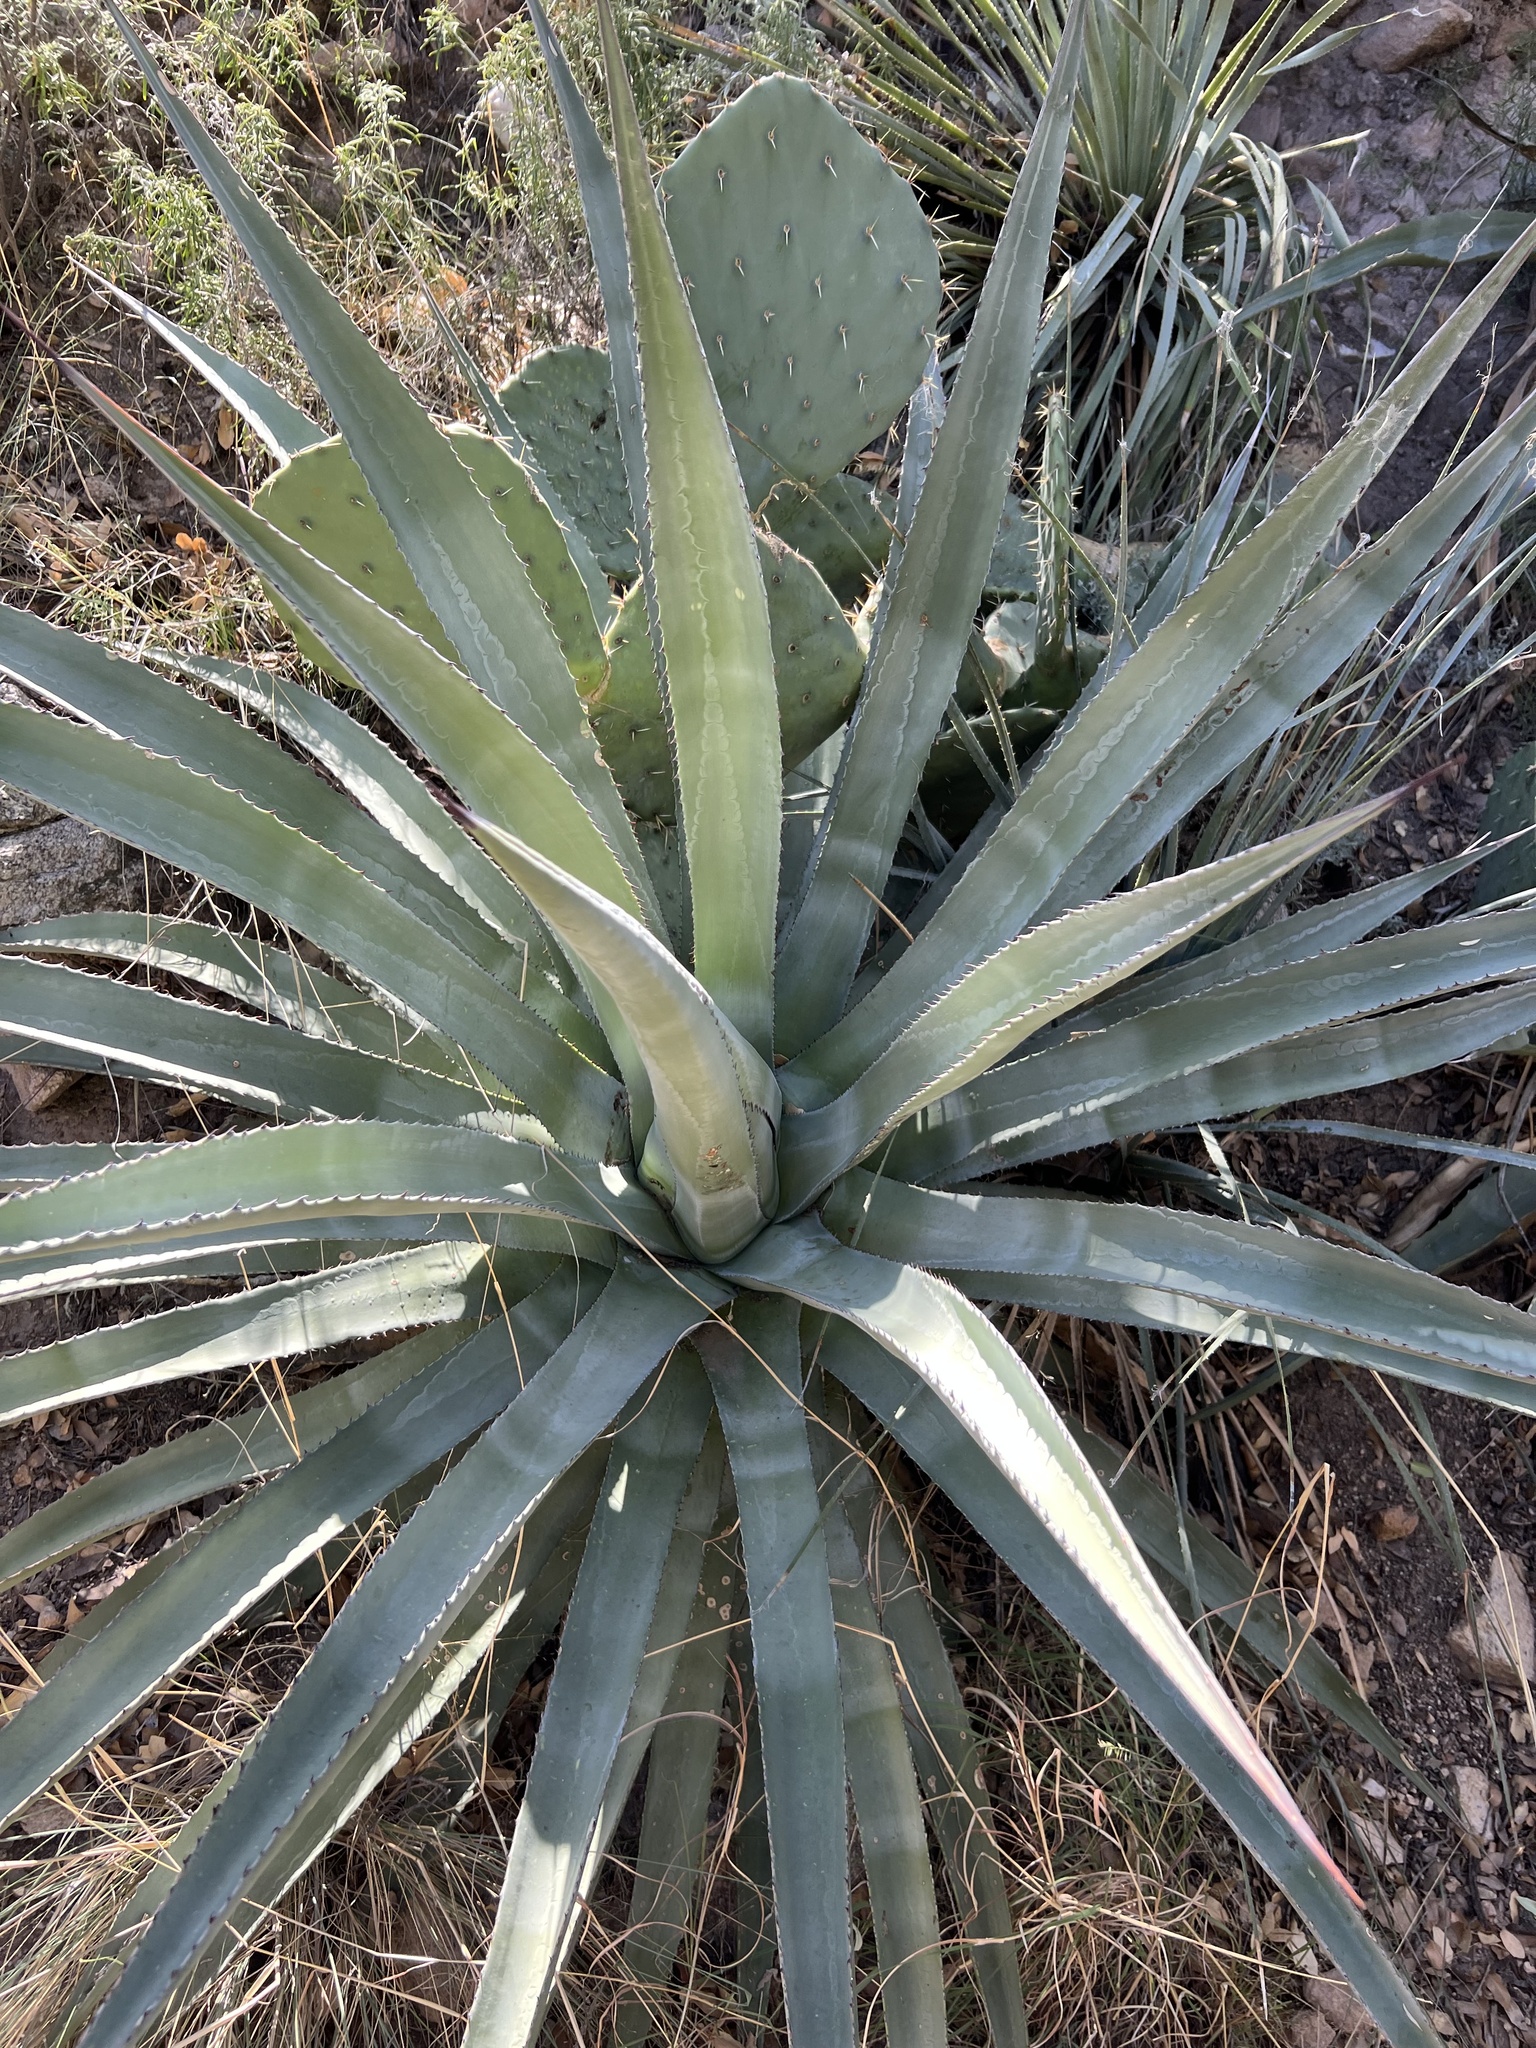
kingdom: Plantae
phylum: Tracheophyta
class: Liliopsida
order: Asparagales
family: Asparagaceae
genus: Agave
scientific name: Agave palmeri
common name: Palmer agave
